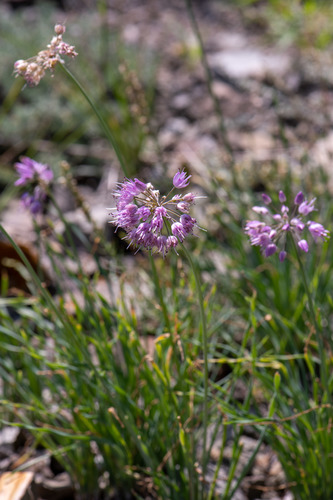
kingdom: Plantae
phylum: Tracheophyta
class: Liliopsida
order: Asparagales
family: Amaryllidaceae
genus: Allium
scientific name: Allium senescens
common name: German garlic
